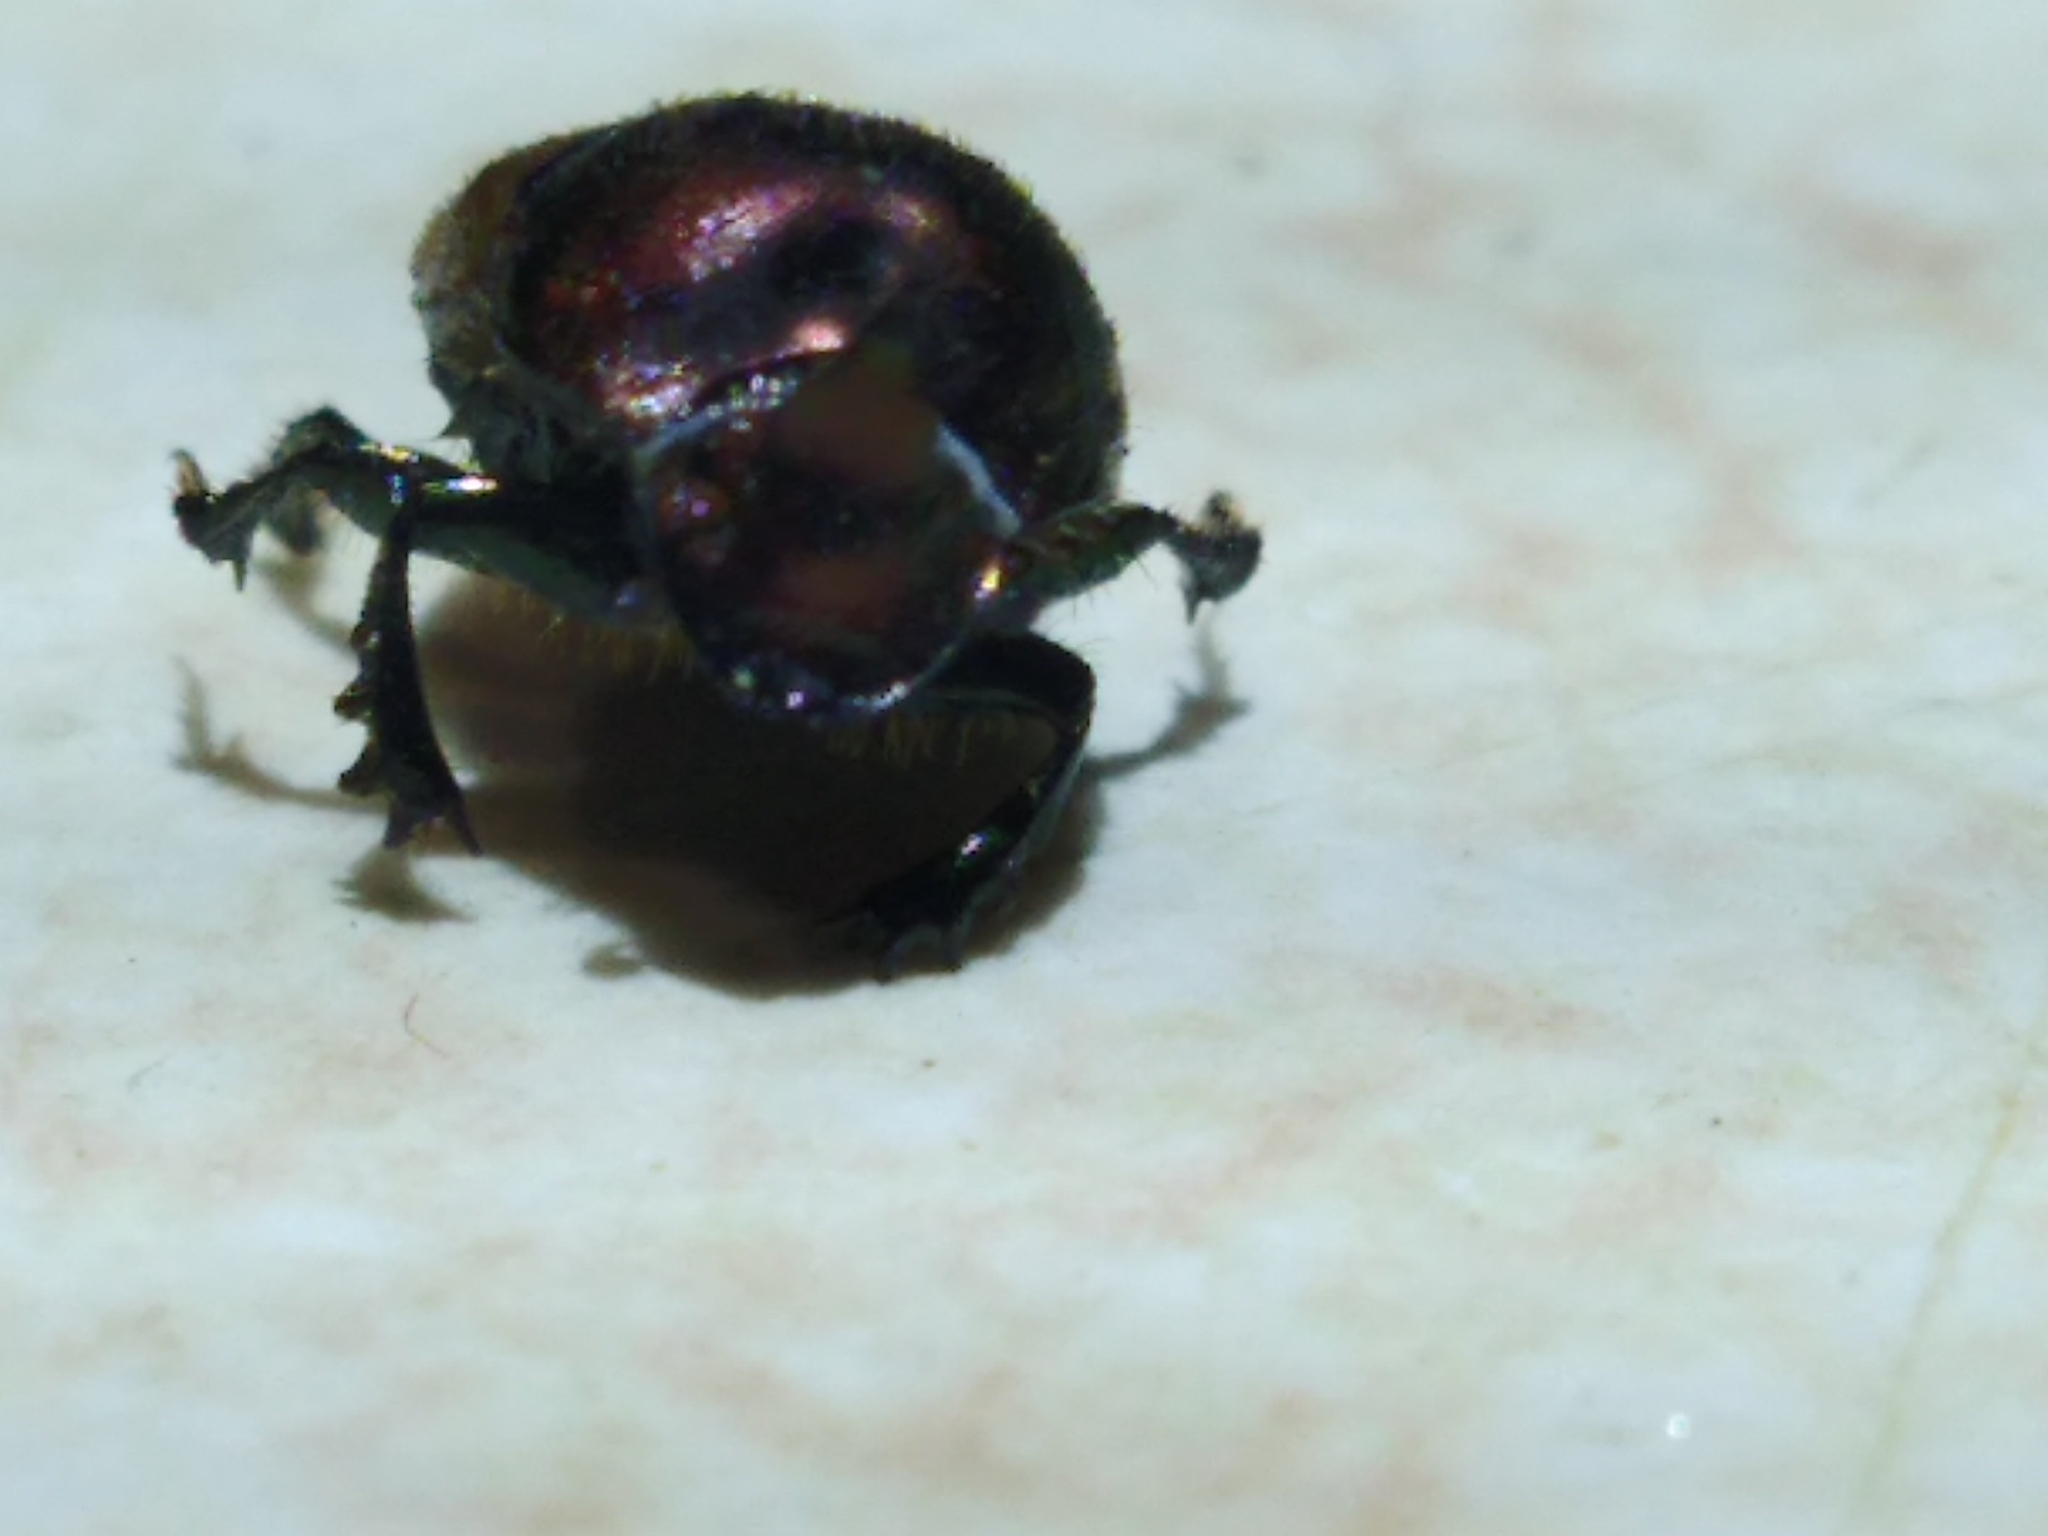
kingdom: Animalia
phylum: Arthropoda
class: Insecta
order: Coleoptera
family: Scarabaeidae
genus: Onthophagus
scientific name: Onthophagus coenobita
